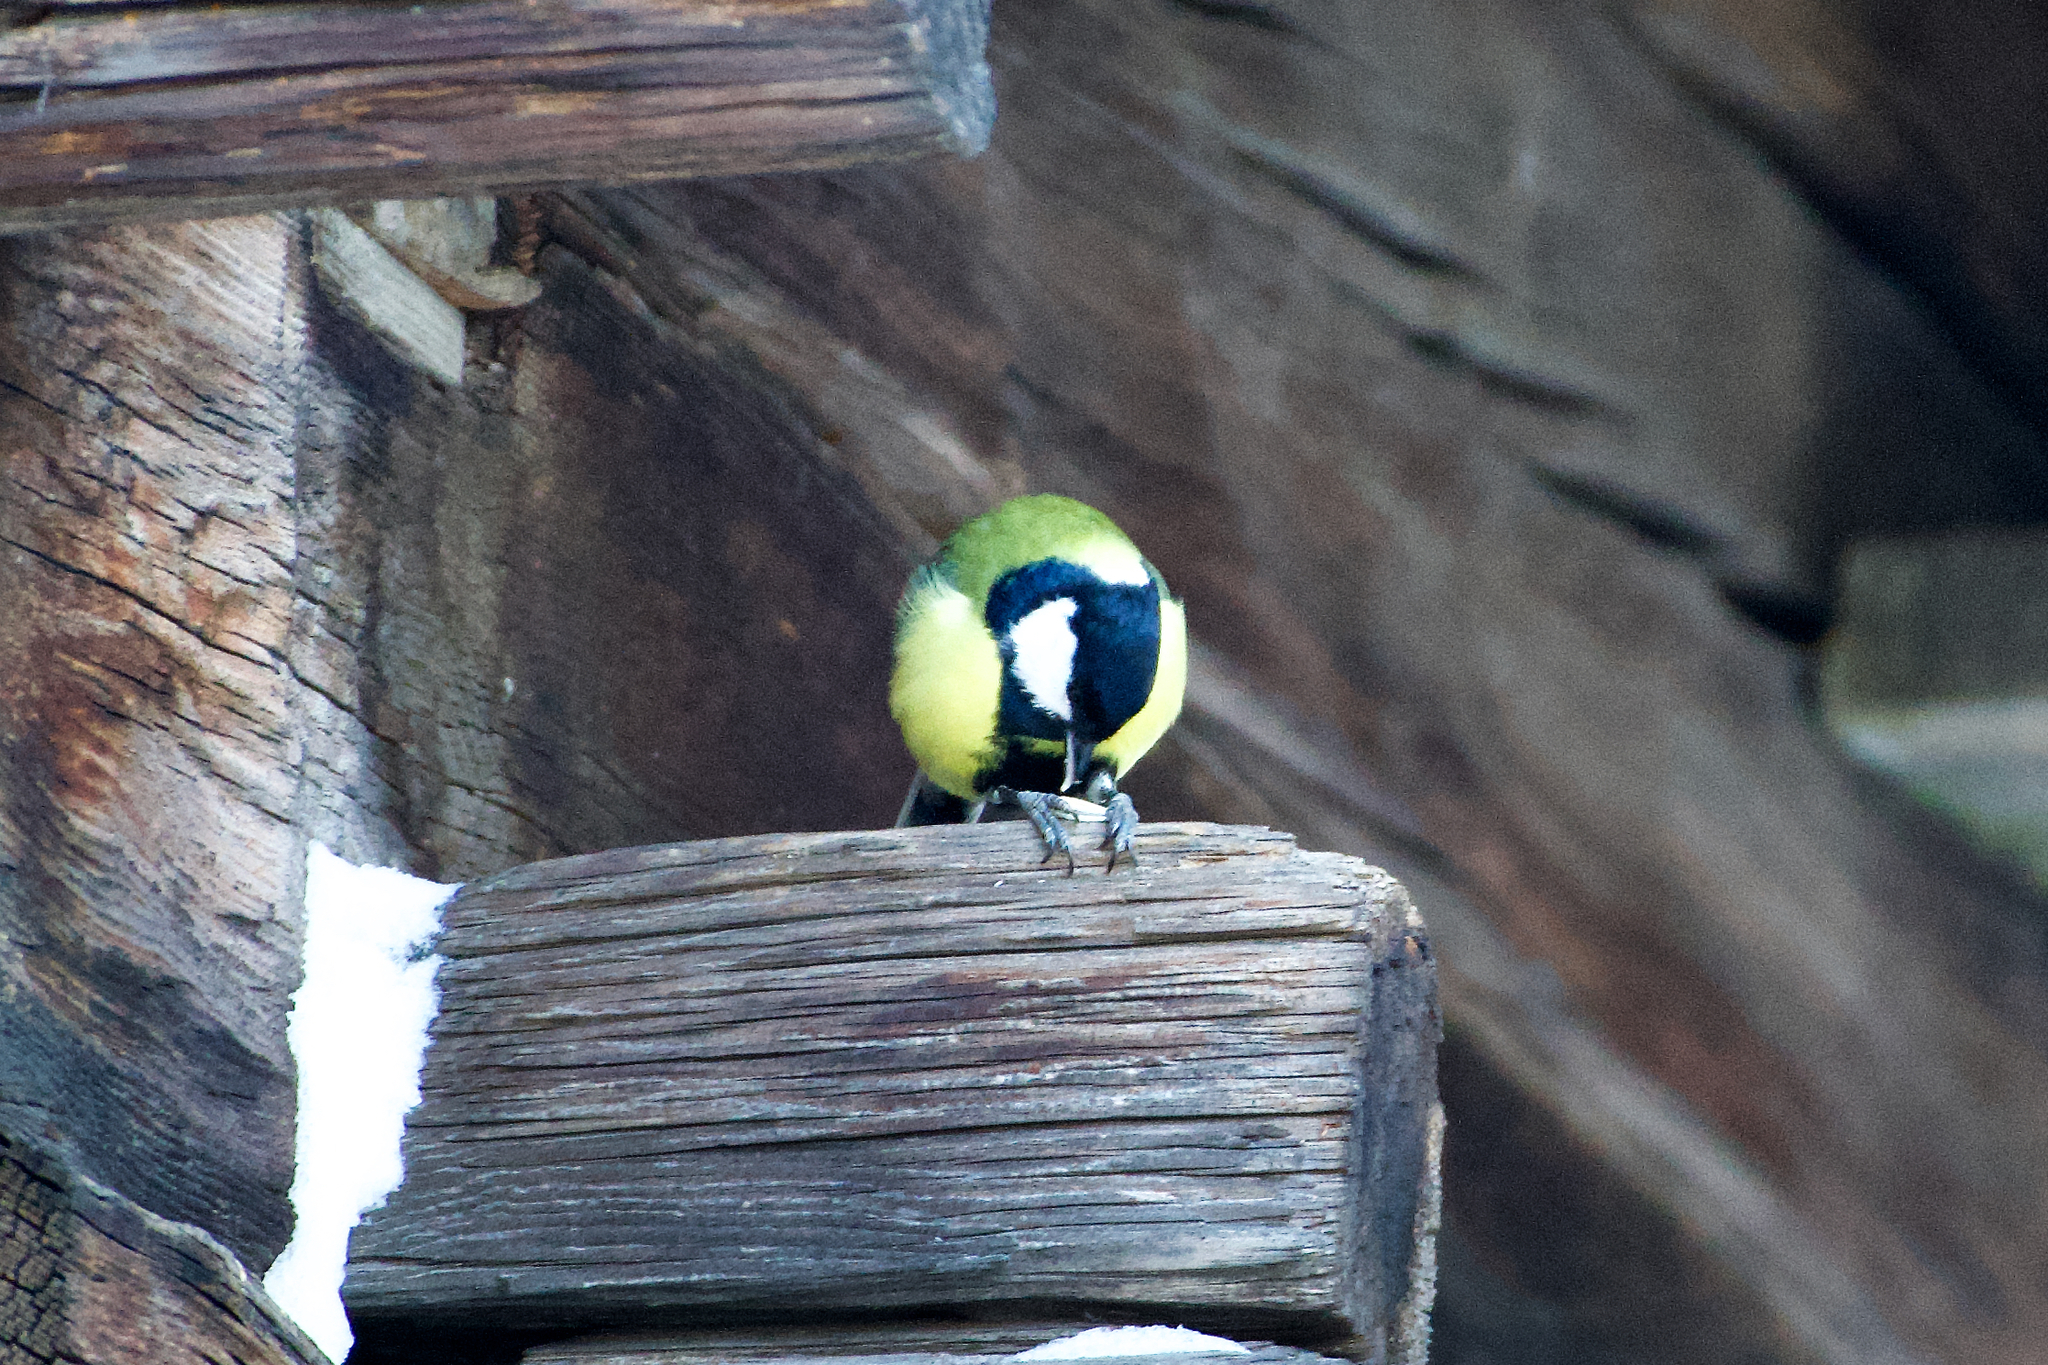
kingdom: Animalia
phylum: Chordata
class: Aves
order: Passeriformes
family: Paridae
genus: Parus
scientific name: Parus major
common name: Great tit
